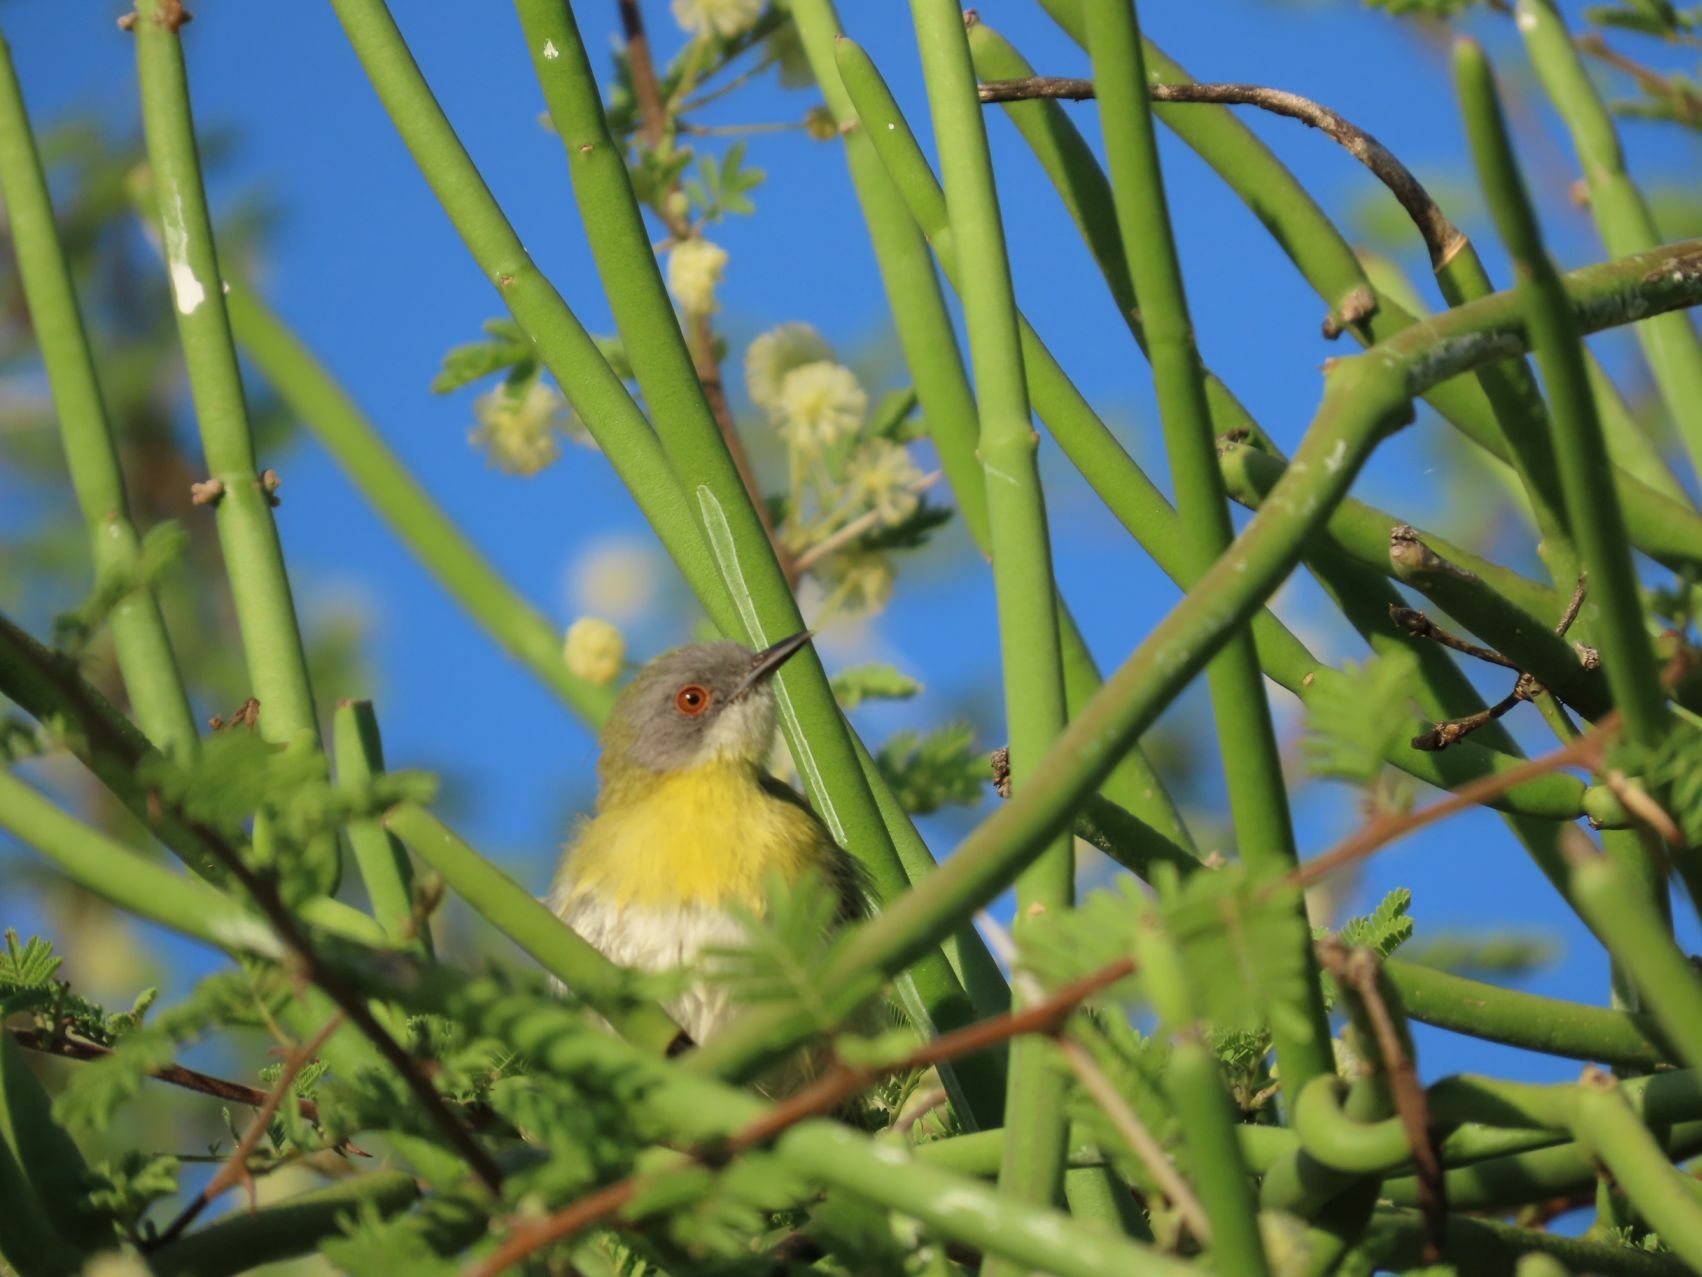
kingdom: Animalia
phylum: Chordata
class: Aves
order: Passeriformes
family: Cisticolidae
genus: Apalis
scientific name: Apalis flavida
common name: Yellow-breasted apalis
